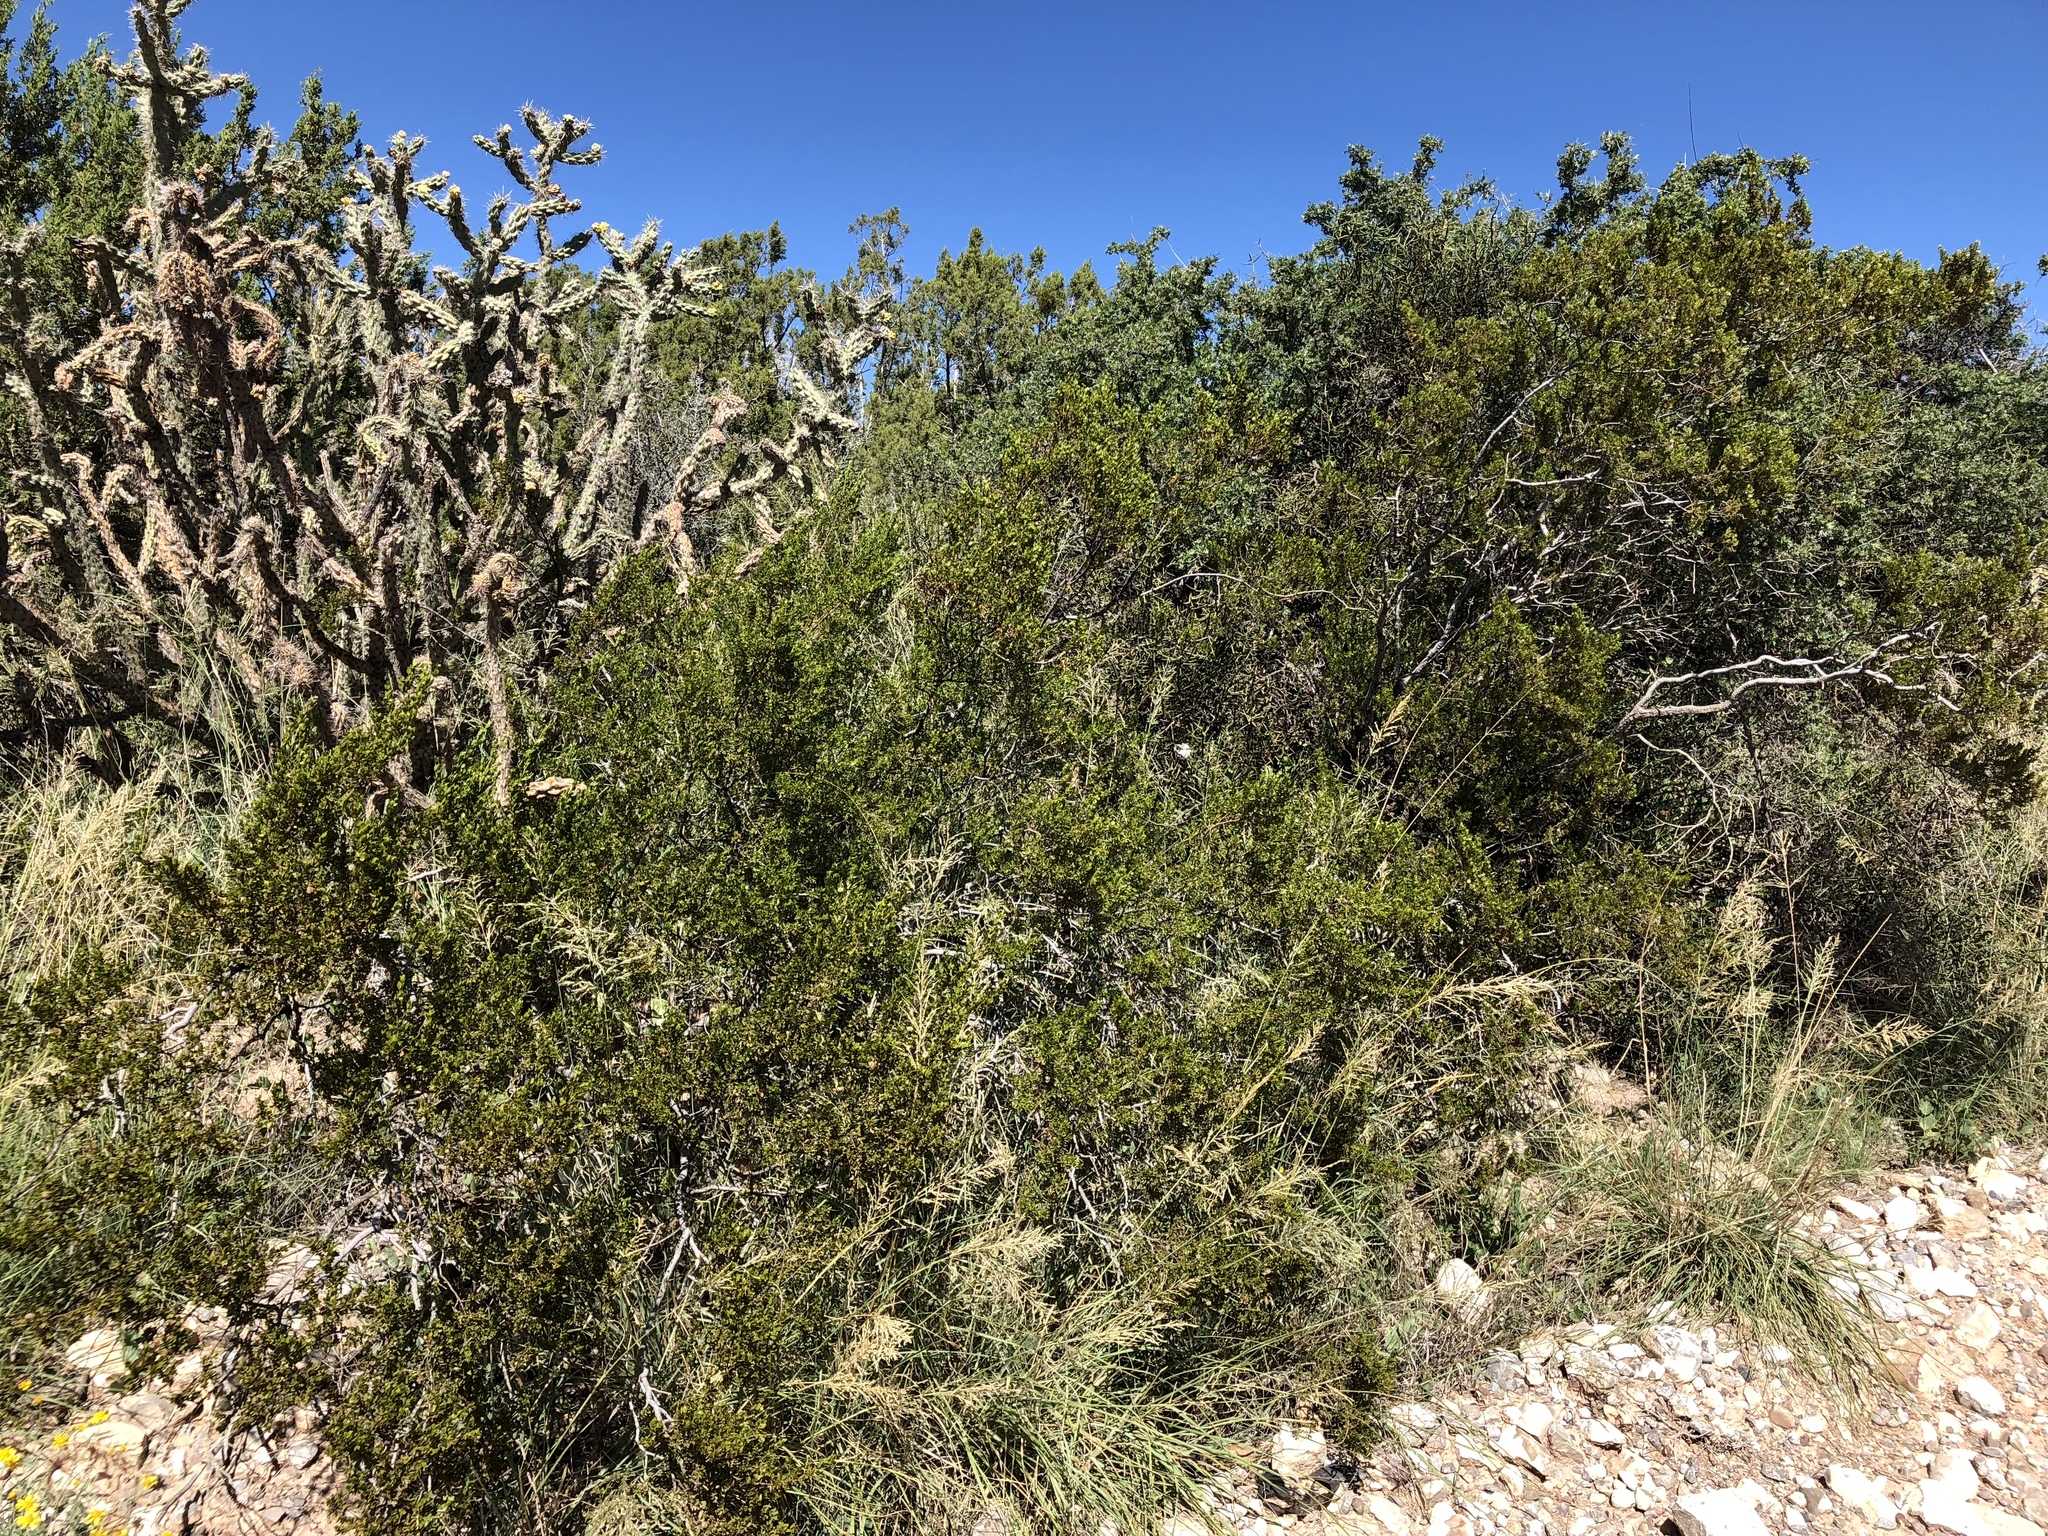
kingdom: Plantae
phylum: Tracheophyta
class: Magnoliopsida
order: Zygophyllales
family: Zygophyllaceae
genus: Larrea
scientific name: Larrea tridentata
